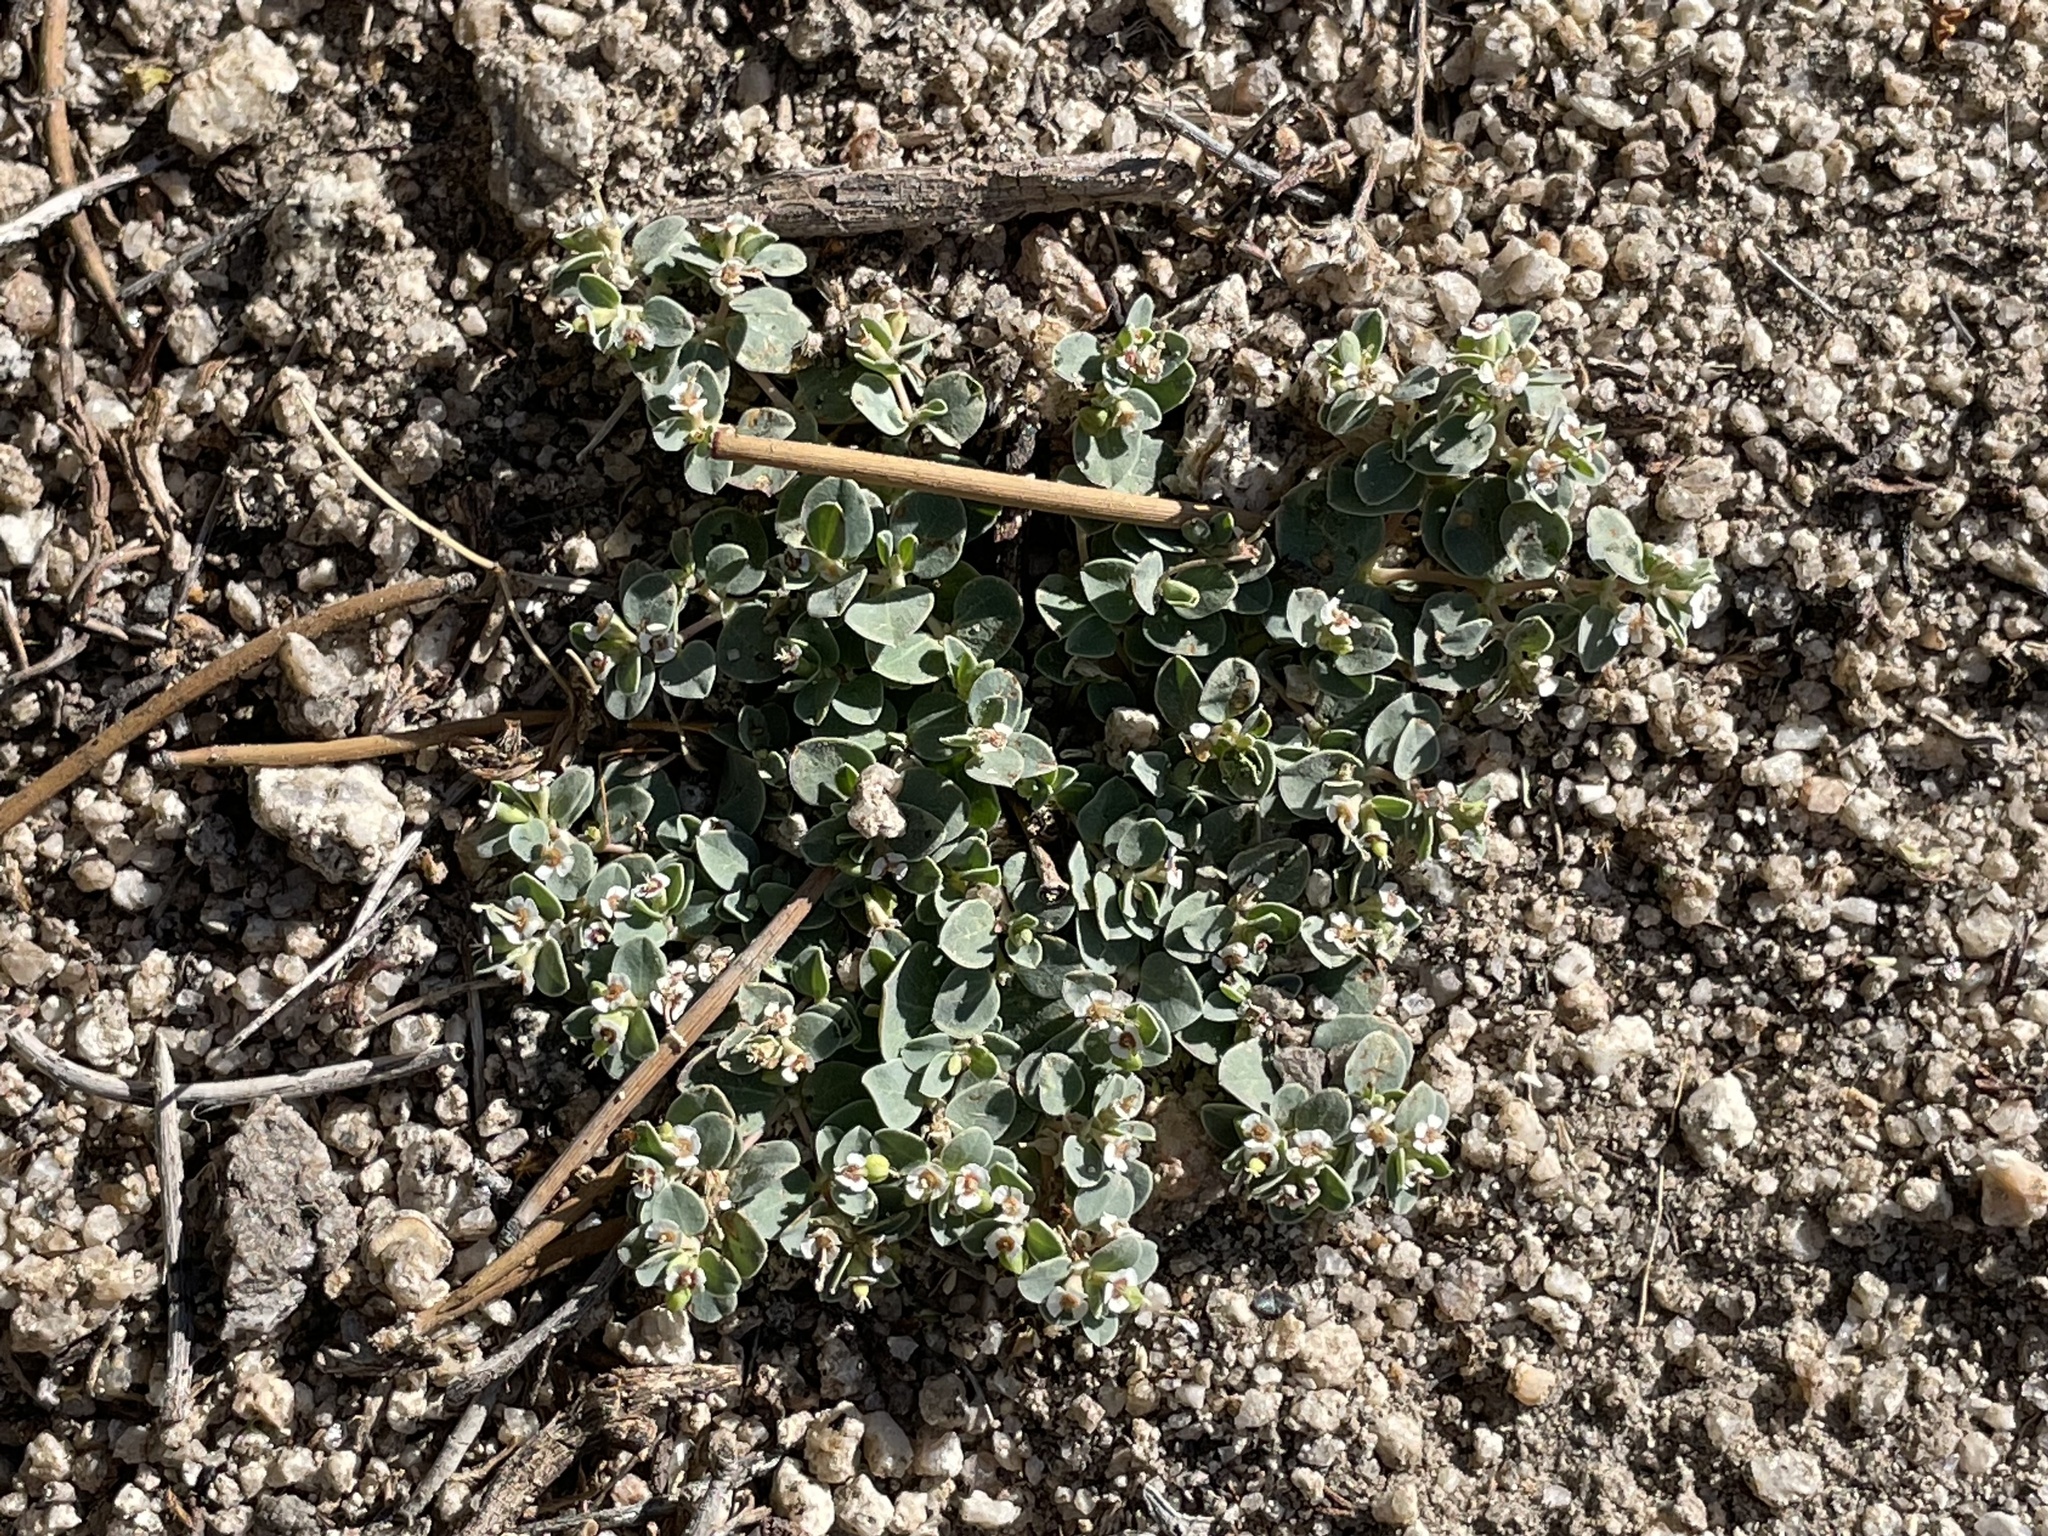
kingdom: Plantae
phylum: Tracheophyta
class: Magnoliopsida
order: Malpighiales
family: Euphorbiaceae
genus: Euphorbia
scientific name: Euphorbia albomarginata
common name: Whitemargin sandmat
